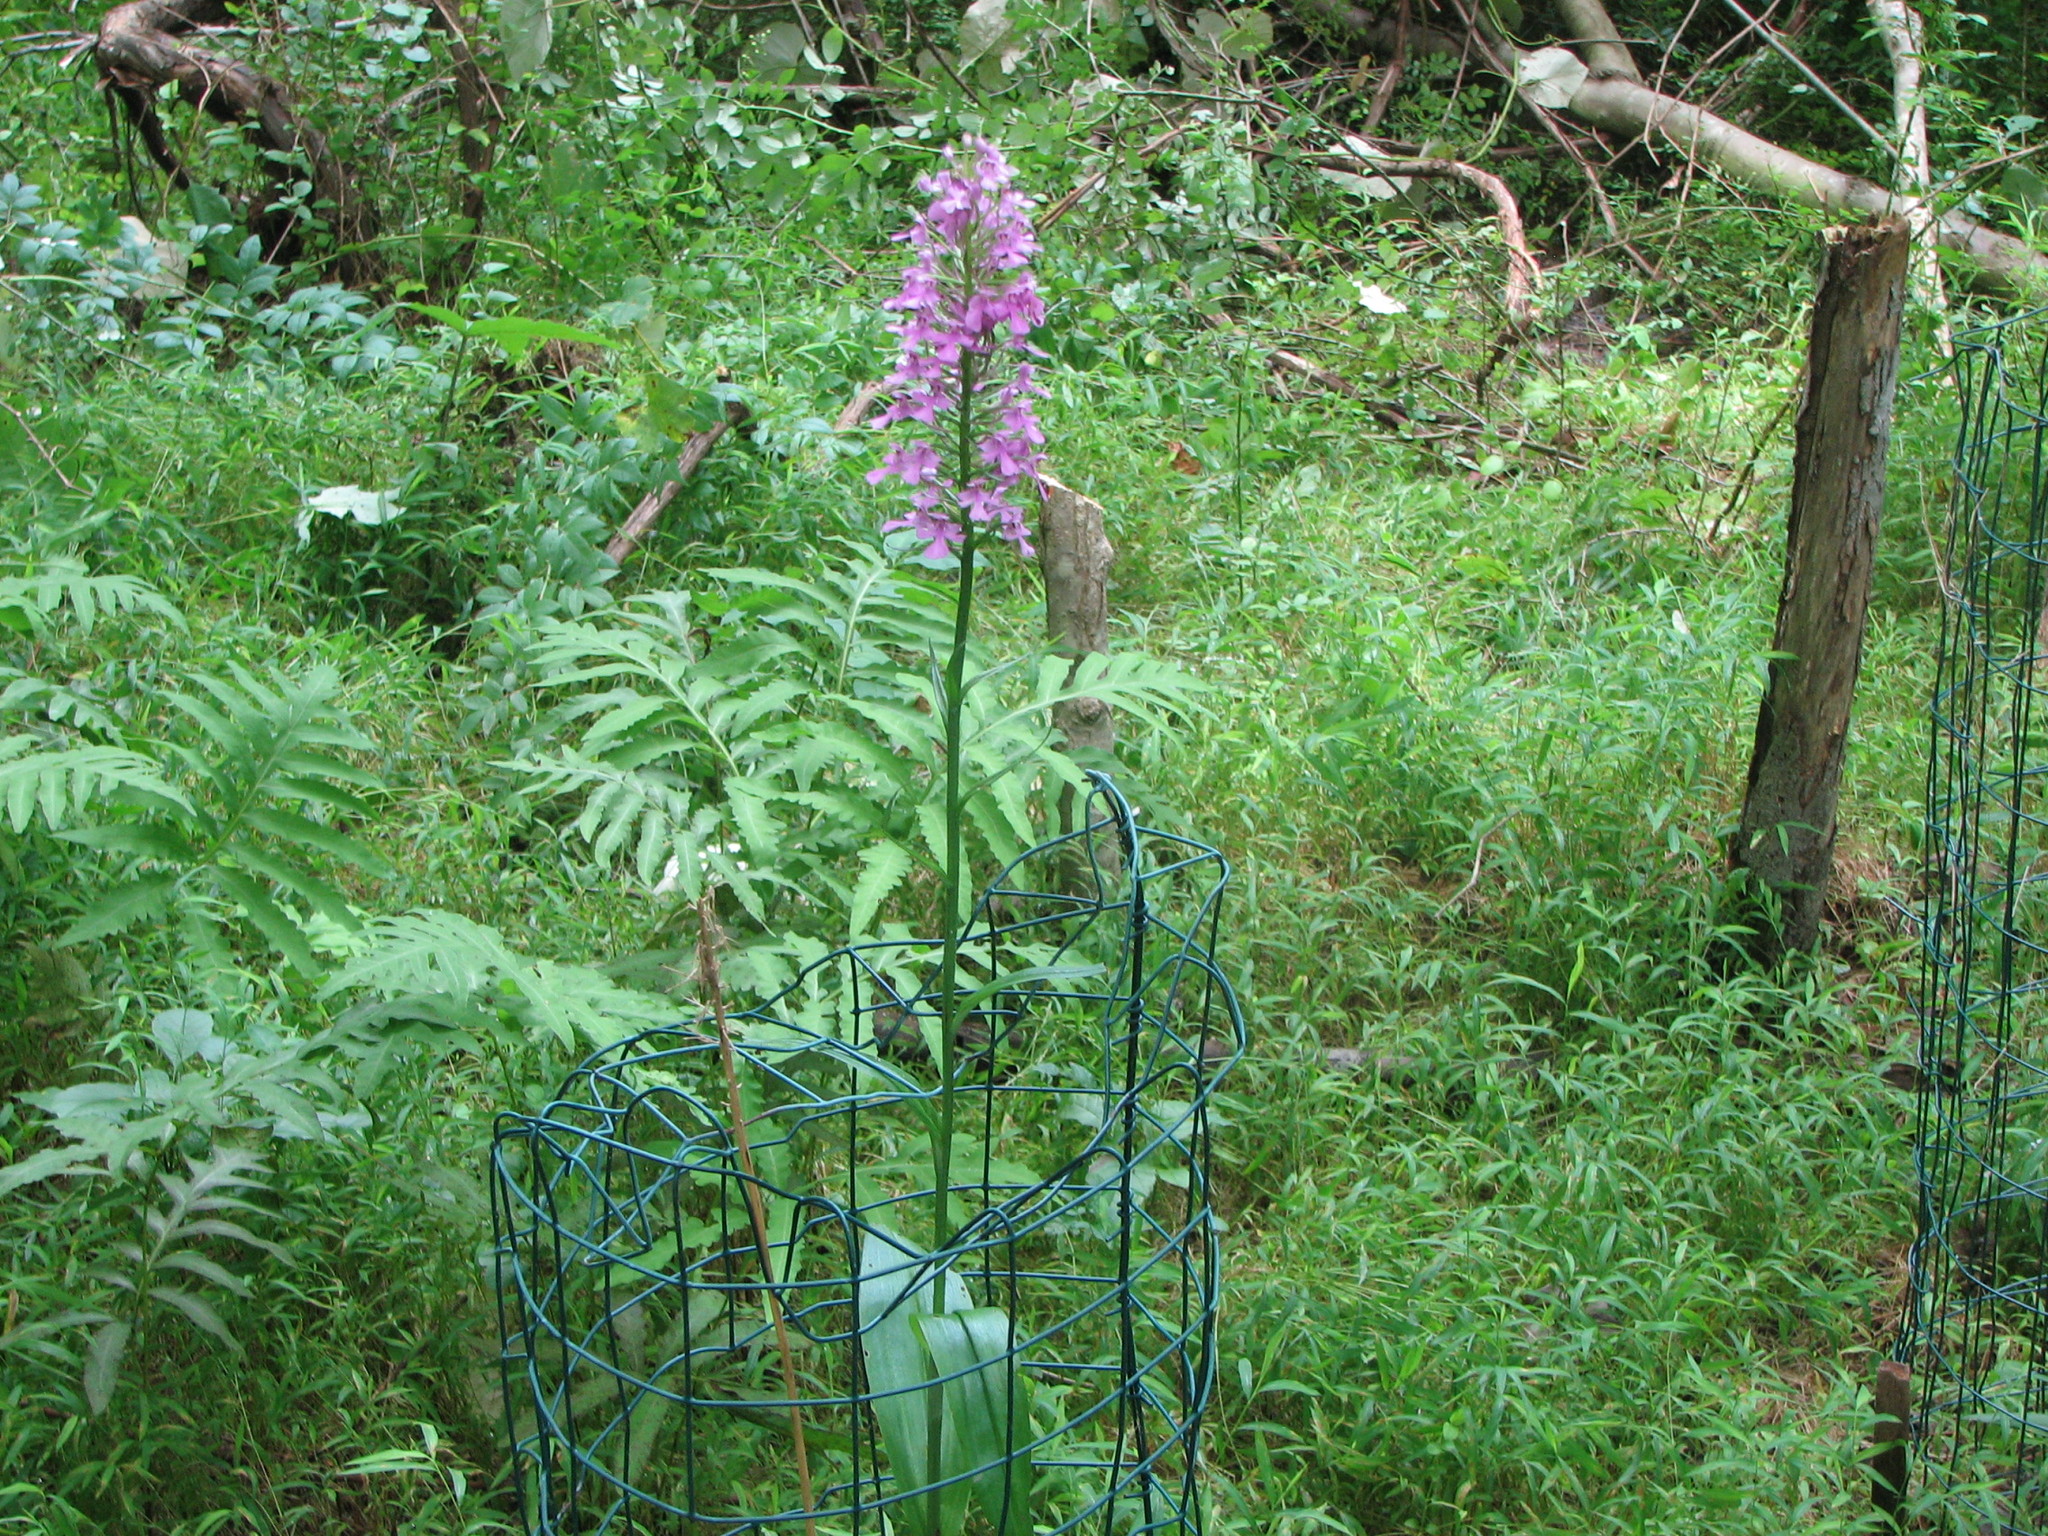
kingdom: Plantae
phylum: Tracheophyta
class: Liliopsida
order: Asparagales
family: Orchidaceae
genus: Platanthera
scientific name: Platanthera peramoena
